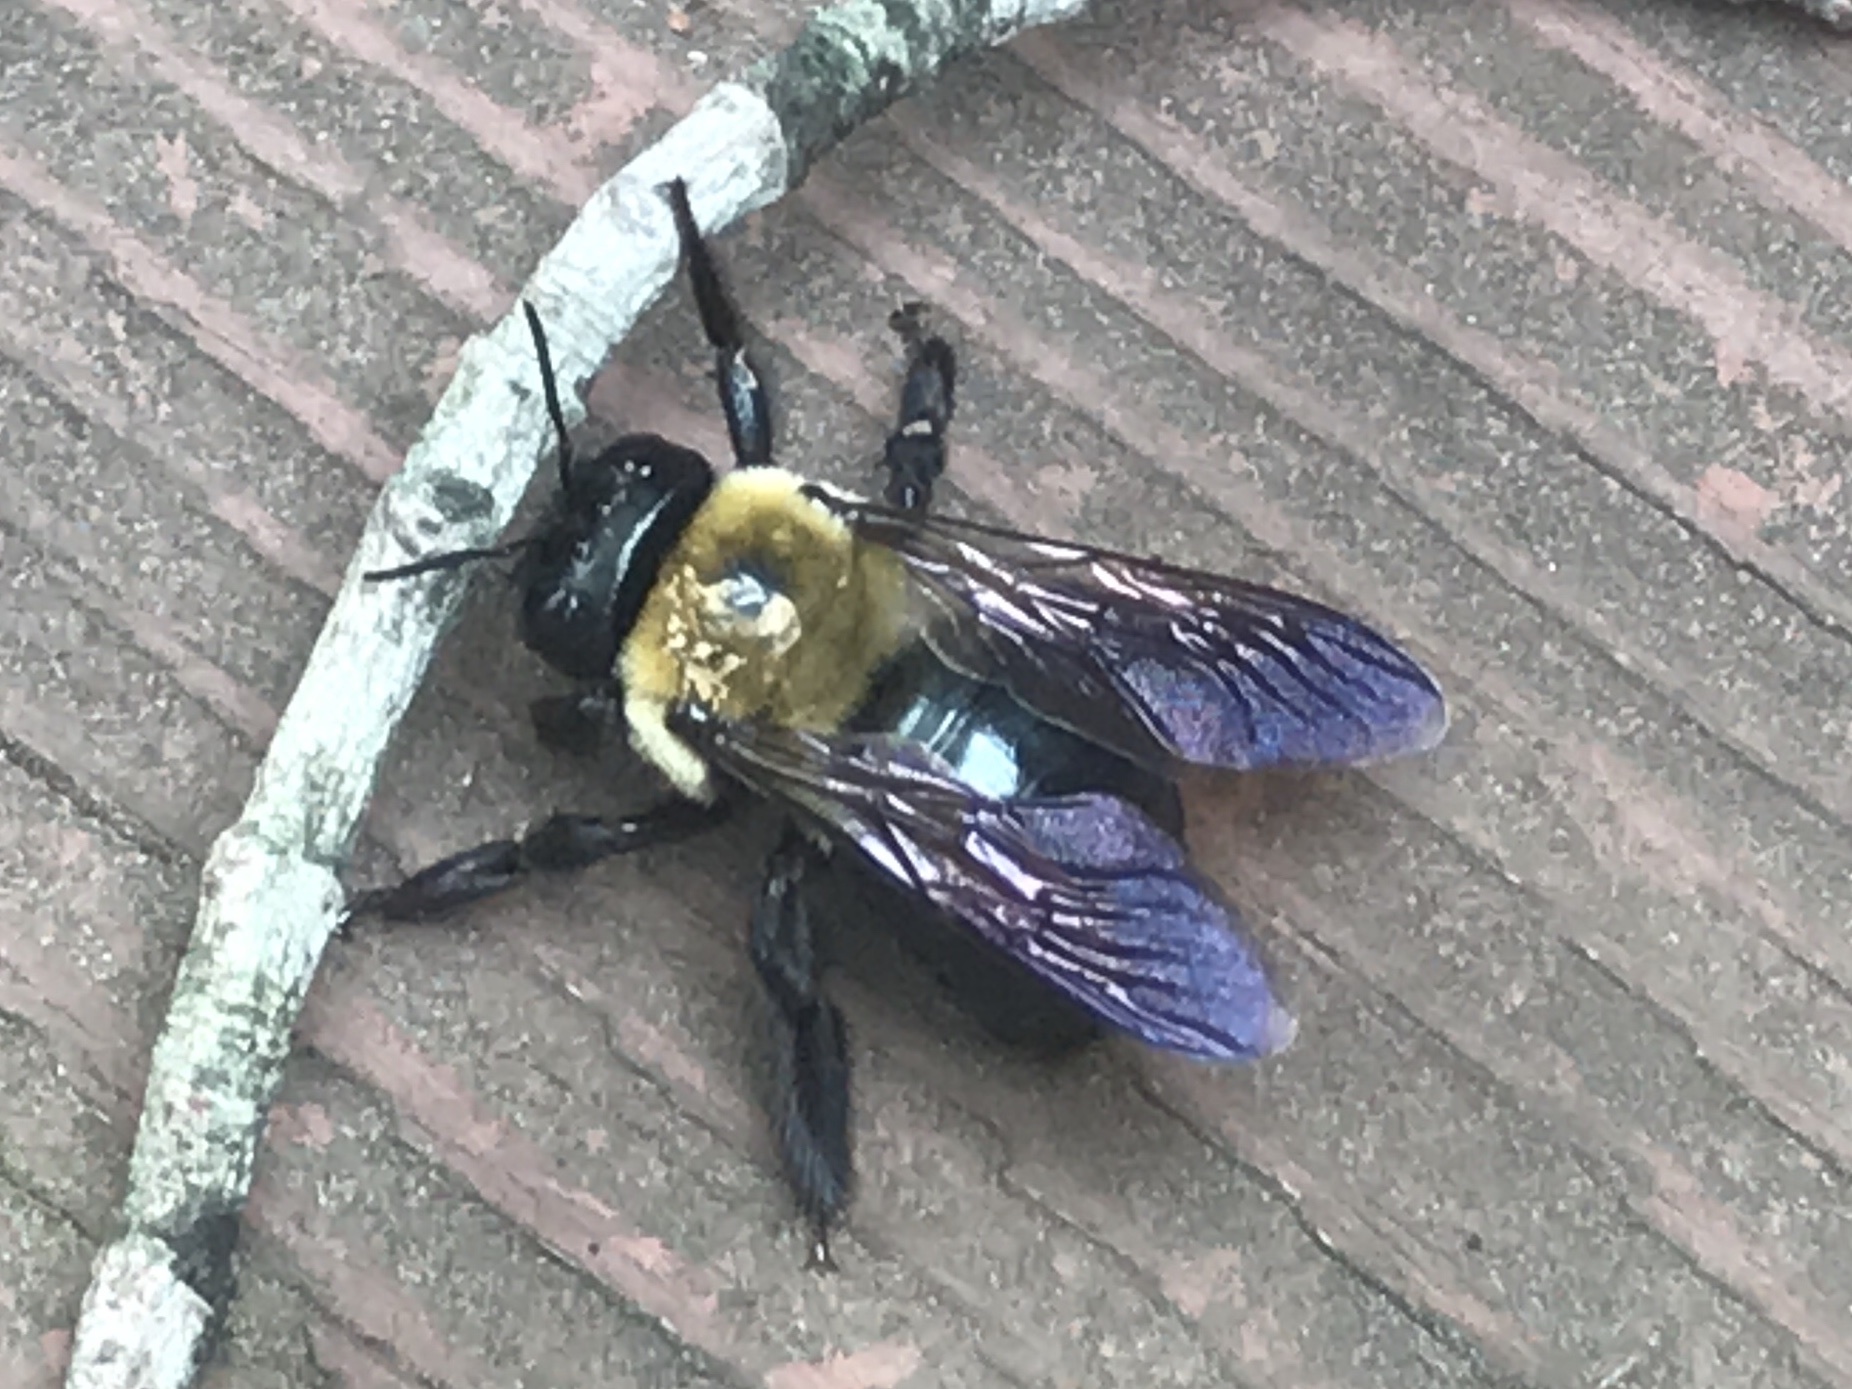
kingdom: Animalia
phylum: Arthropoda
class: Insecta
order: Hymenoptera
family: Apidae
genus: Xylocopa
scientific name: Xylocopa virginica
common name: Carpenter bee
